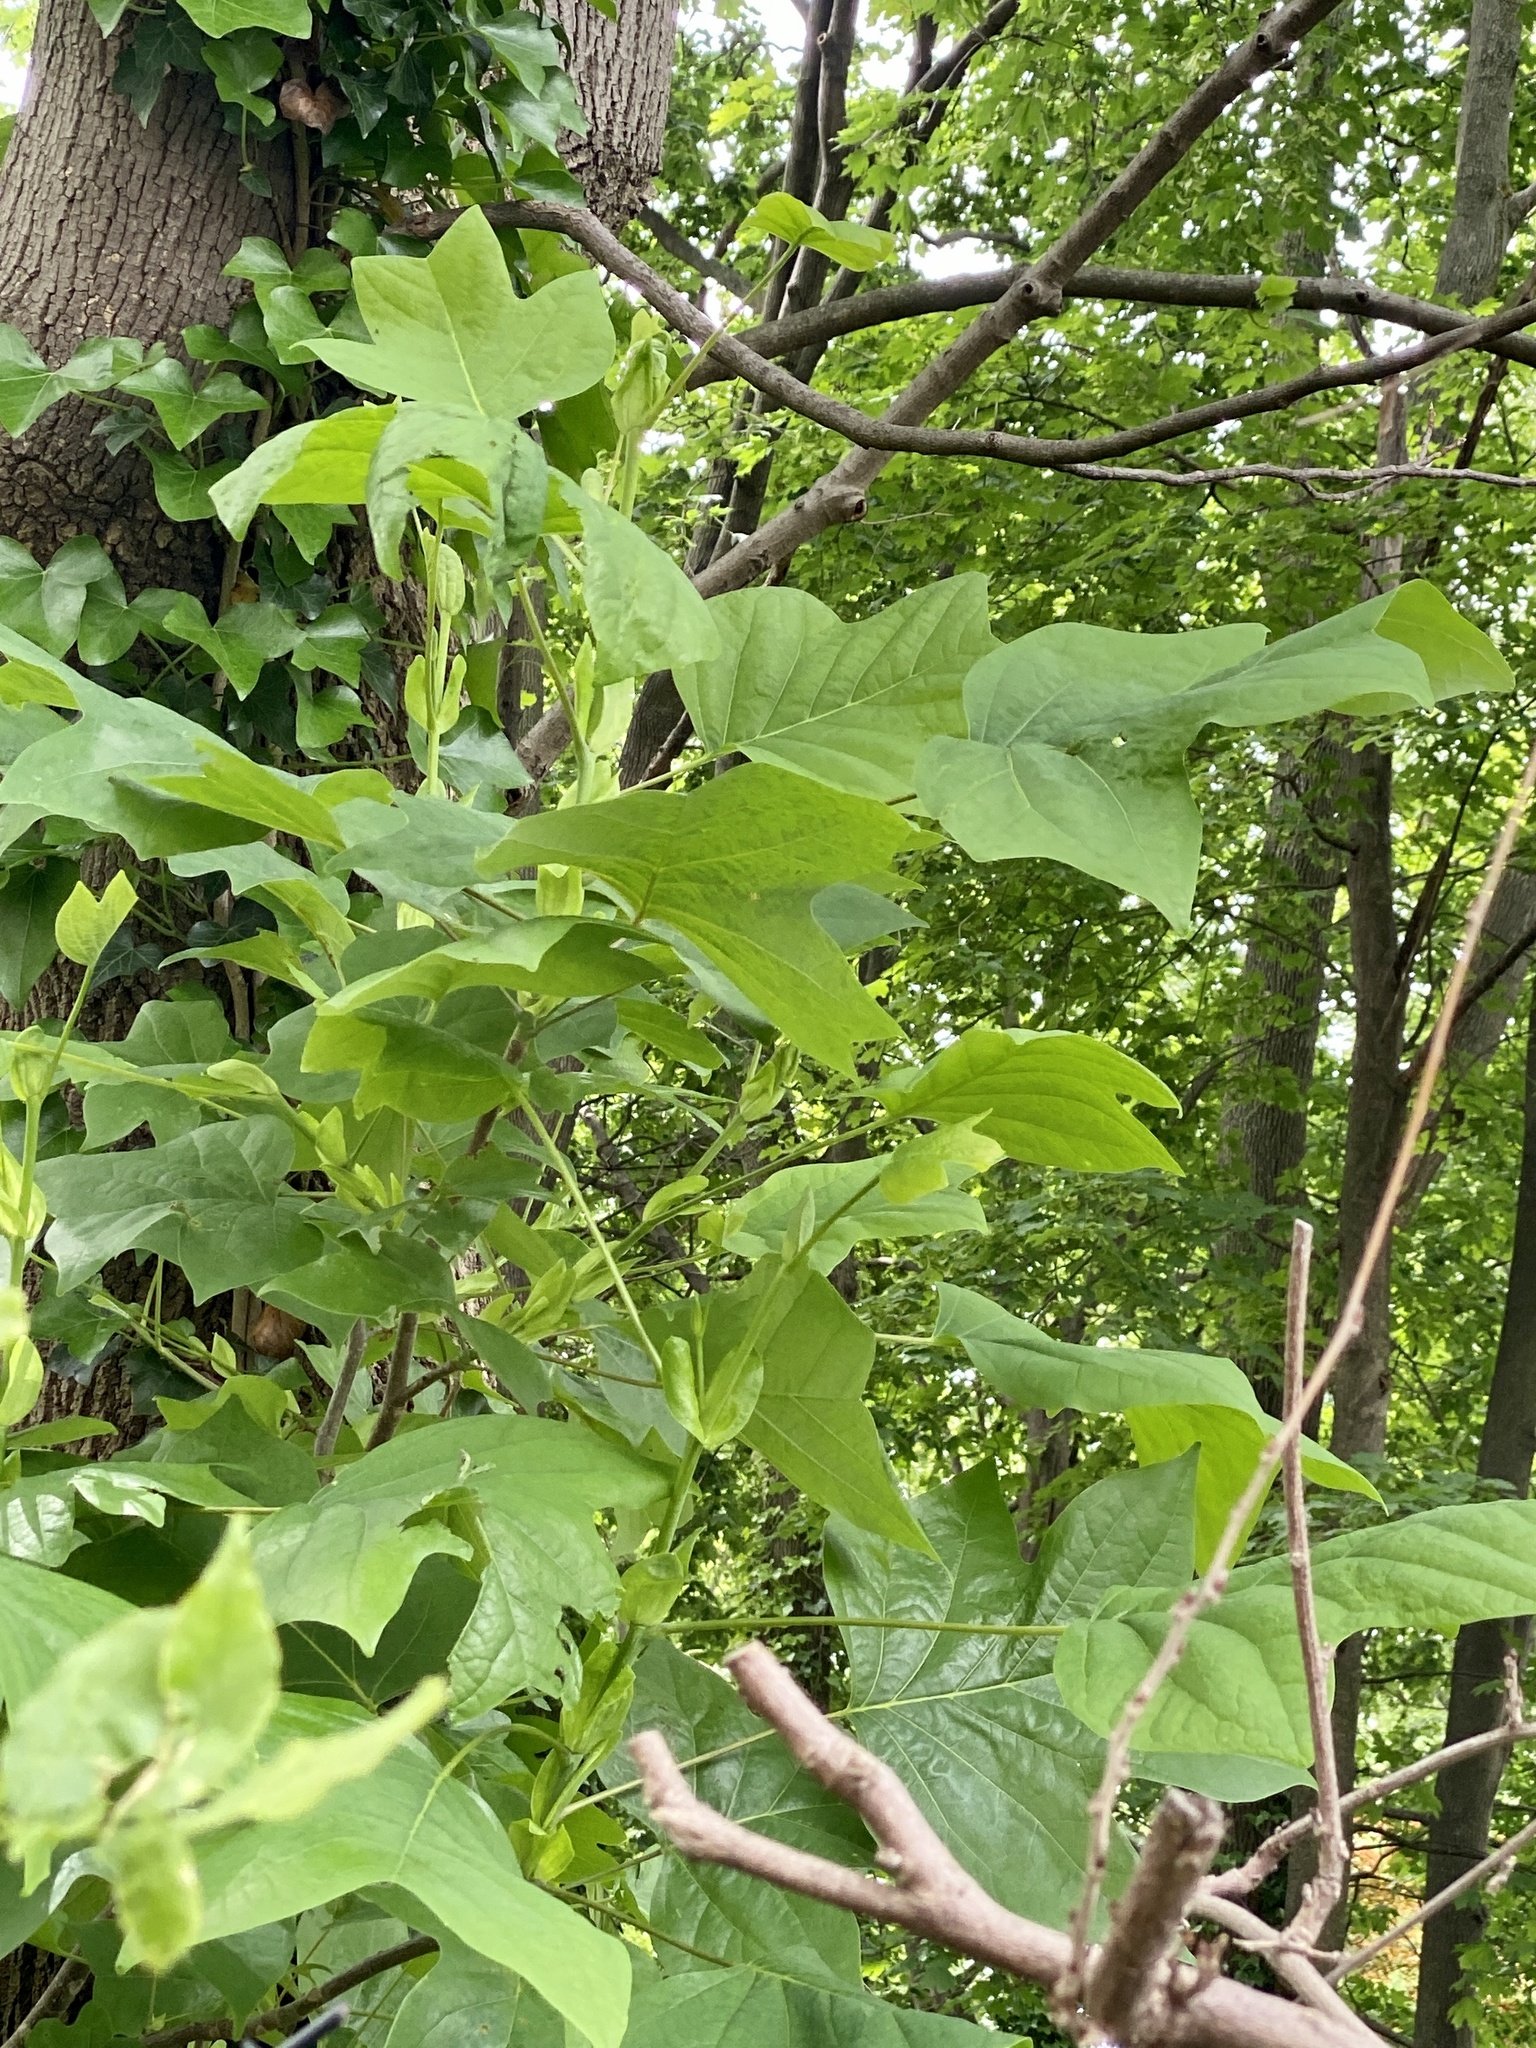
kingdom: Plantae
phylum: Tracheophyta
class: Magnoliopsida
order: Magnoliales
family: Magnoliaceae
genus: Liriodendron
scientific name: Liriodendron tulipifera
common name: Tulip tree
